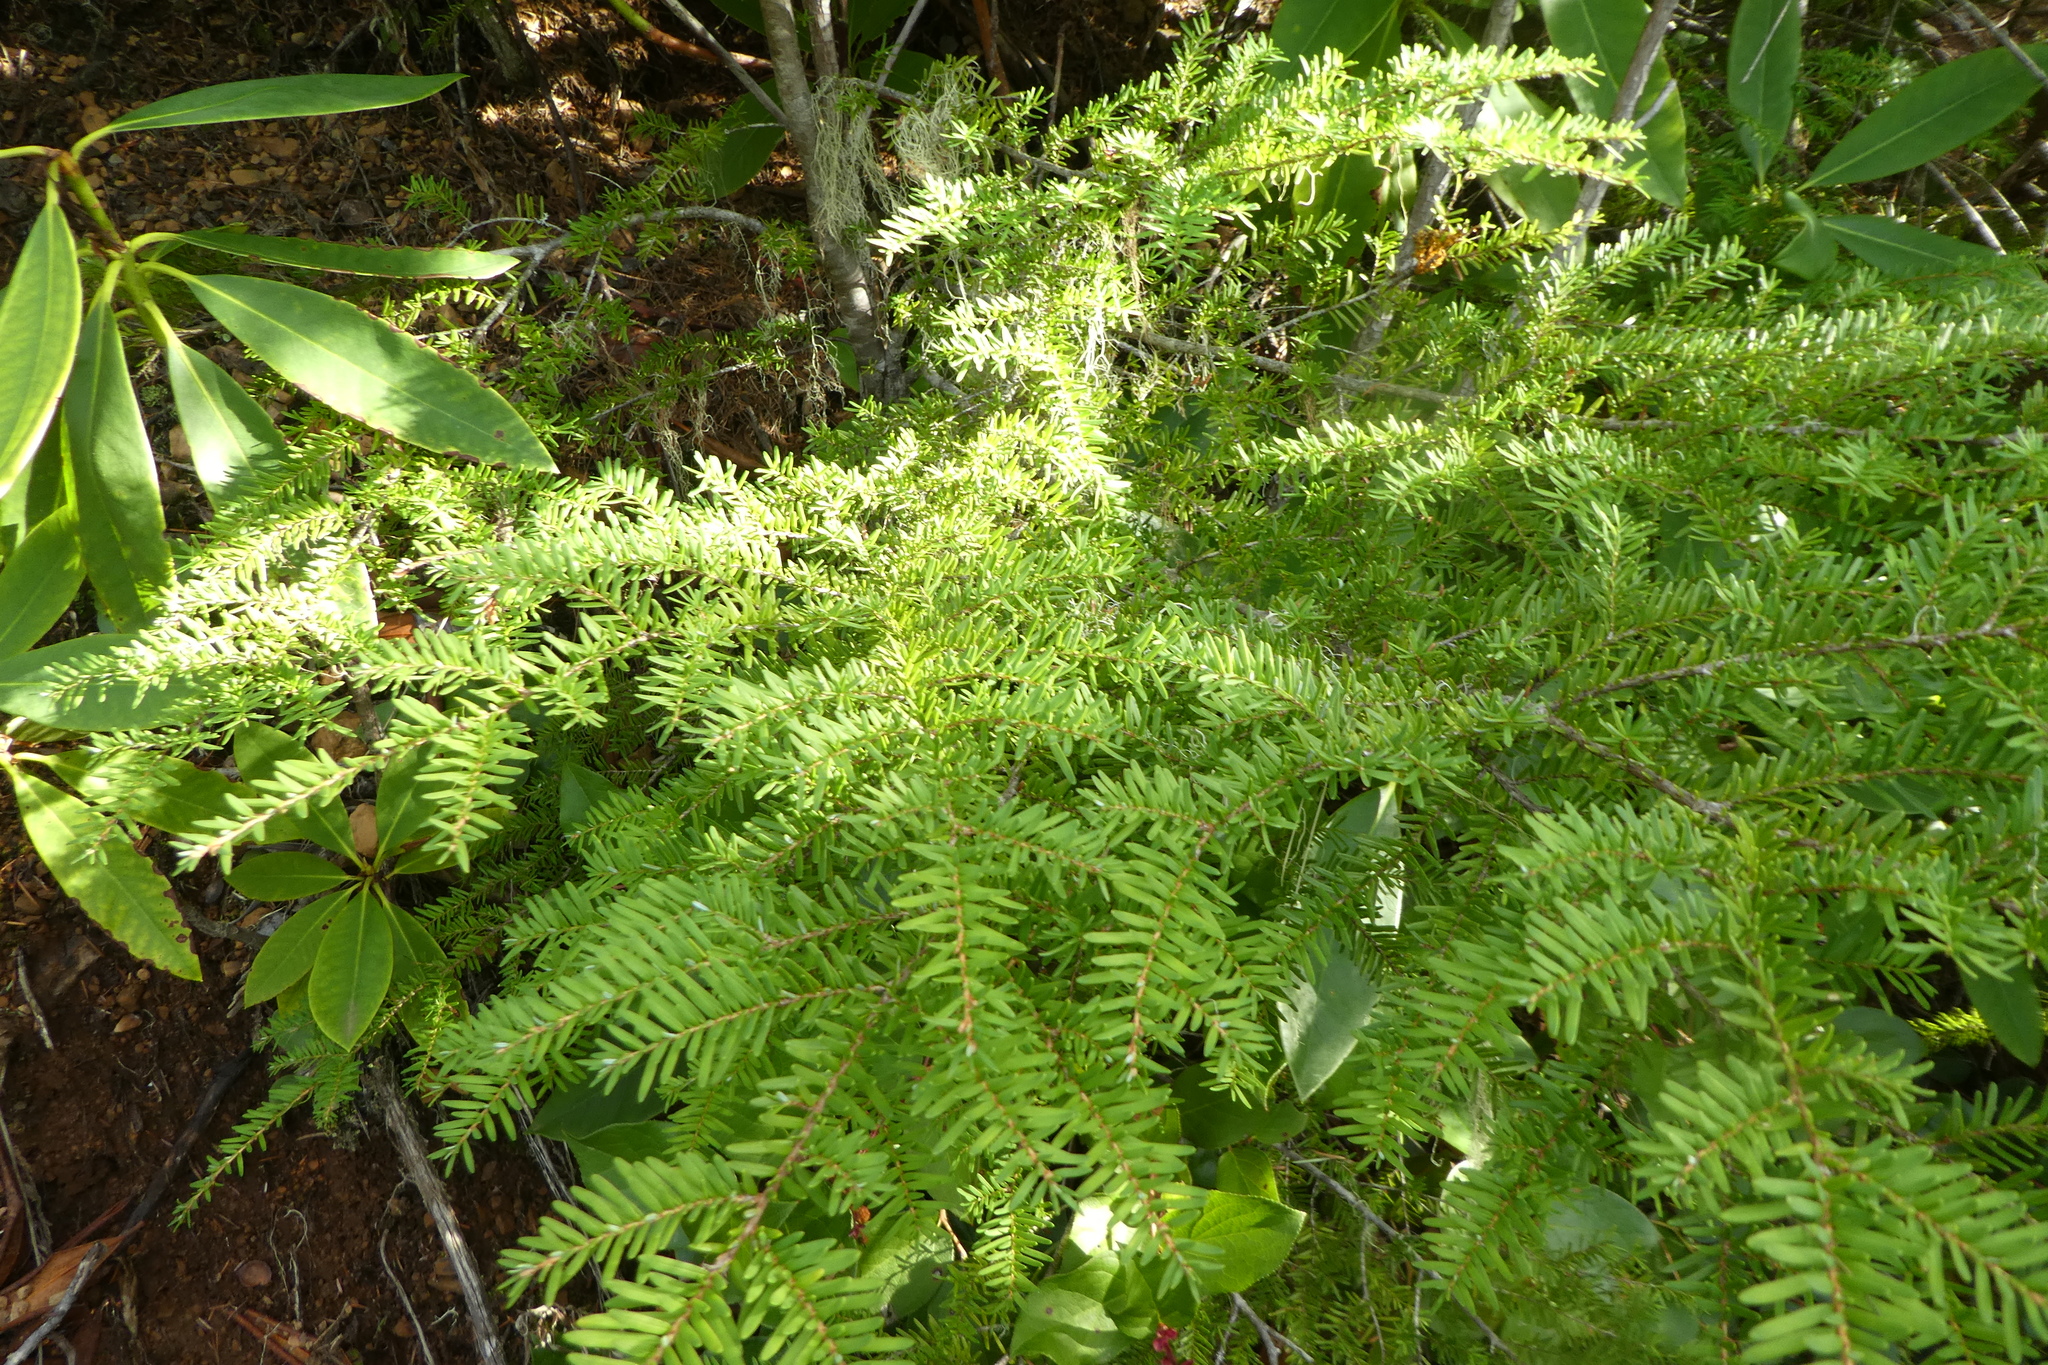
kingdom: Plantae
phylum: Tracheophyta
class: Pinopsida
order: Pinales
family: Pinaceae
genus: Tsuga
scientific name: Tsuga heterophylla
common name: Western hemlock
